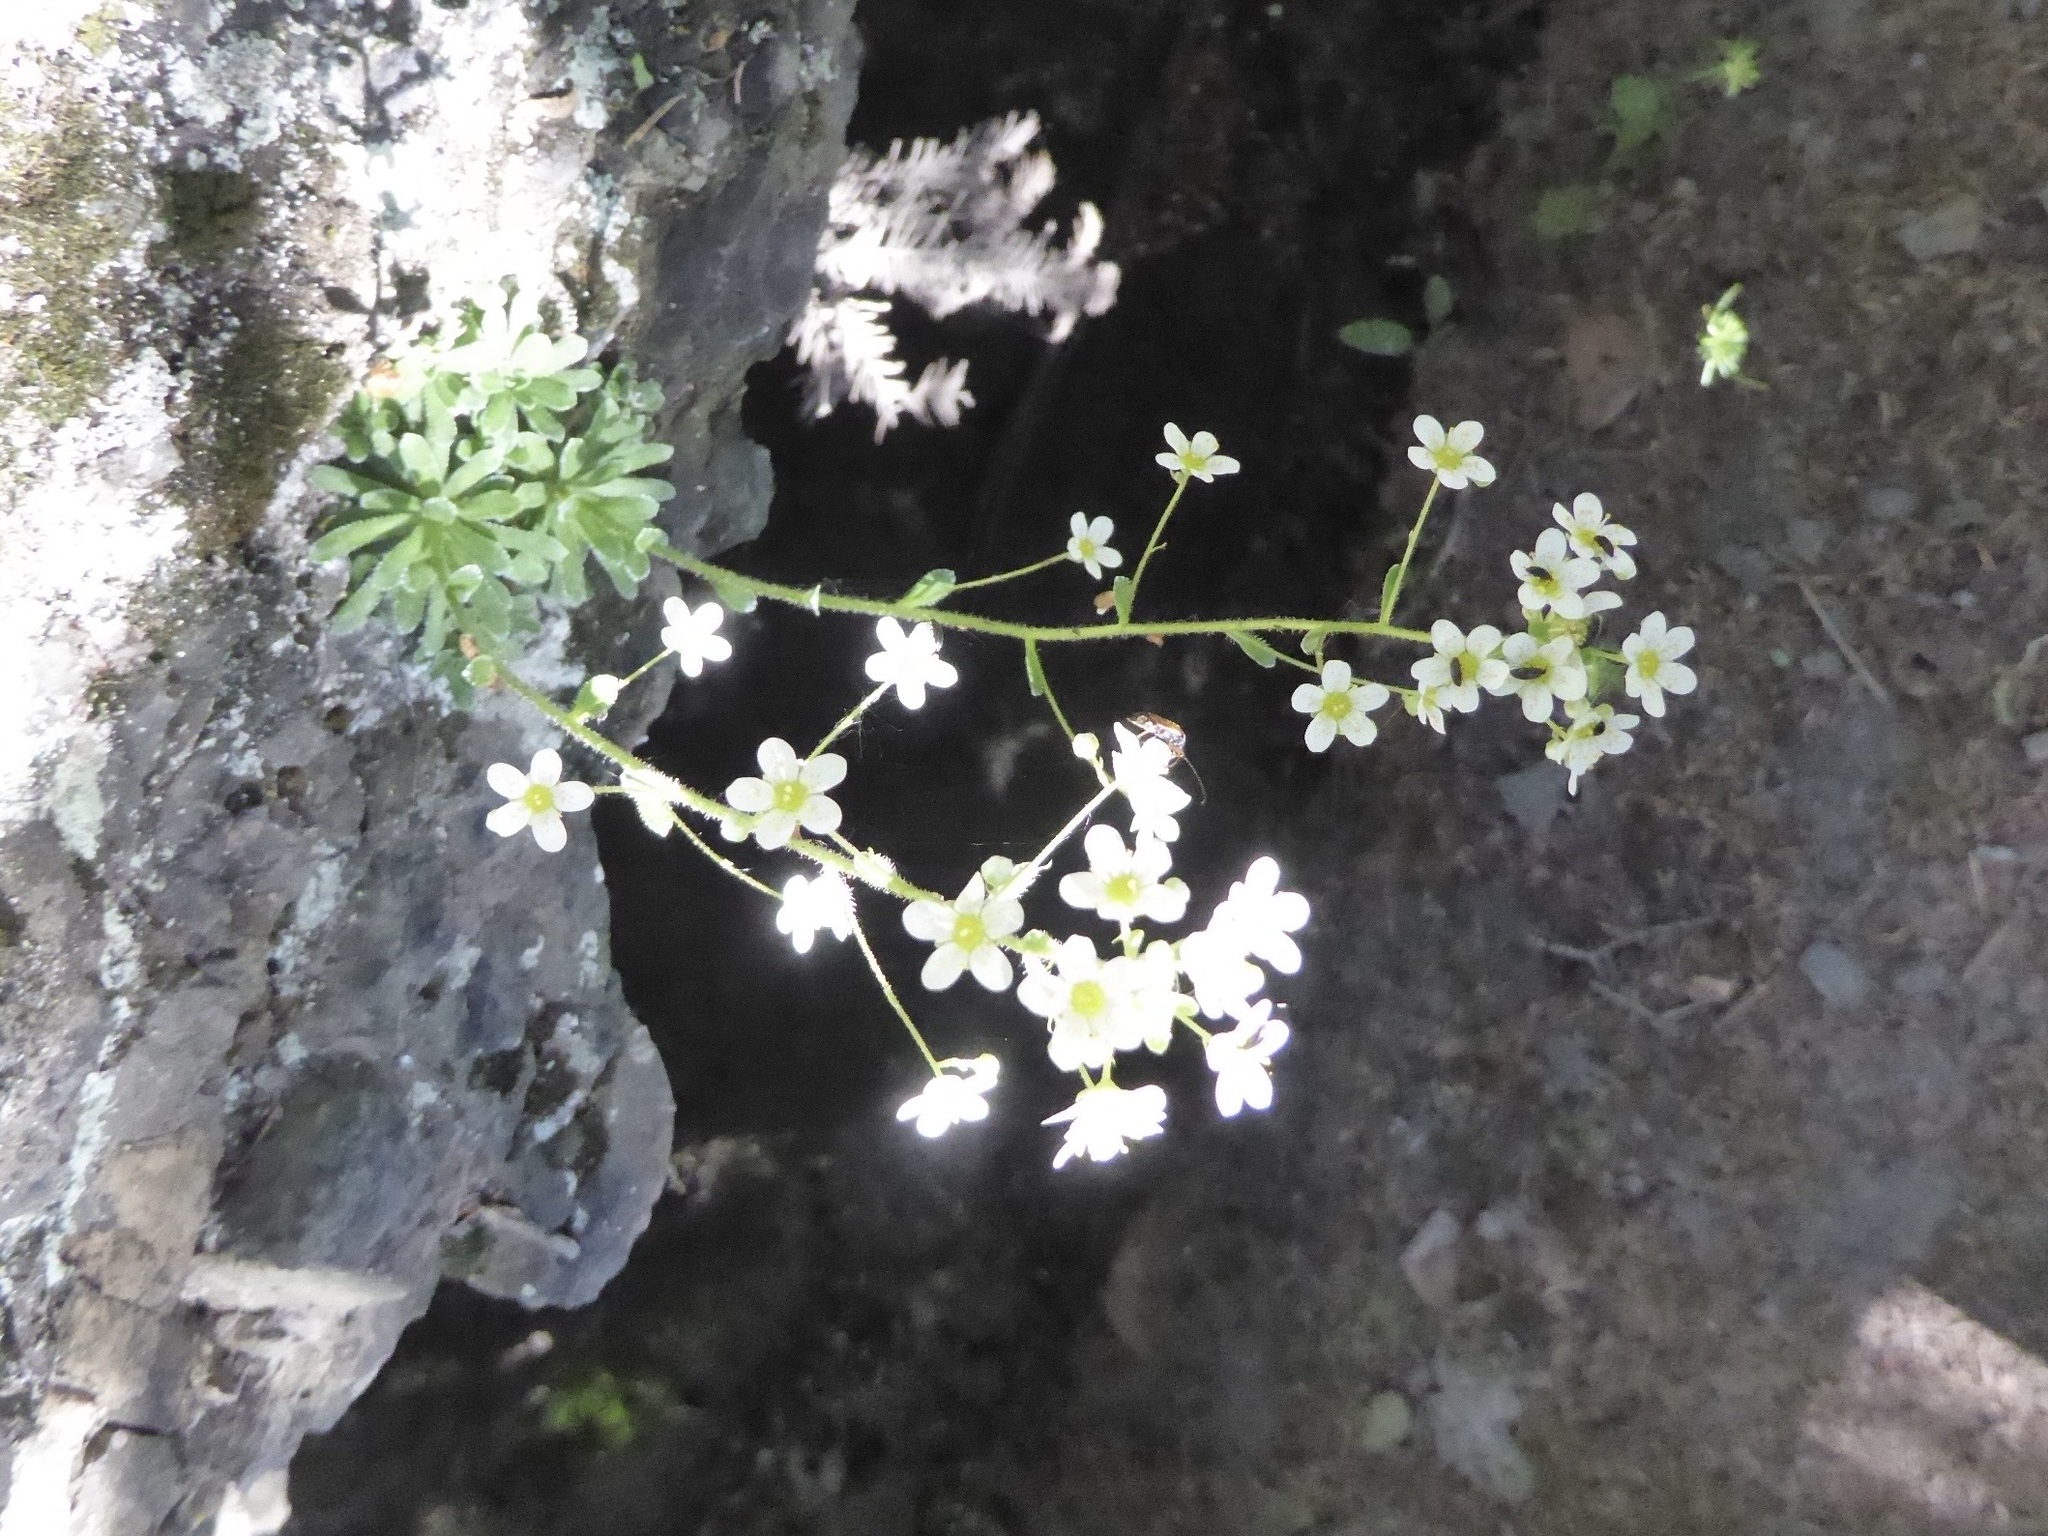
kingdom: Plantae
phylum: Tracheophyta
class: Magnoliopsida
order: Saxifragales
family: Saxifragaceae
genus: Saxifraga
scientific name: Saxifraga paniculata
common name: Livelong saxifrage
